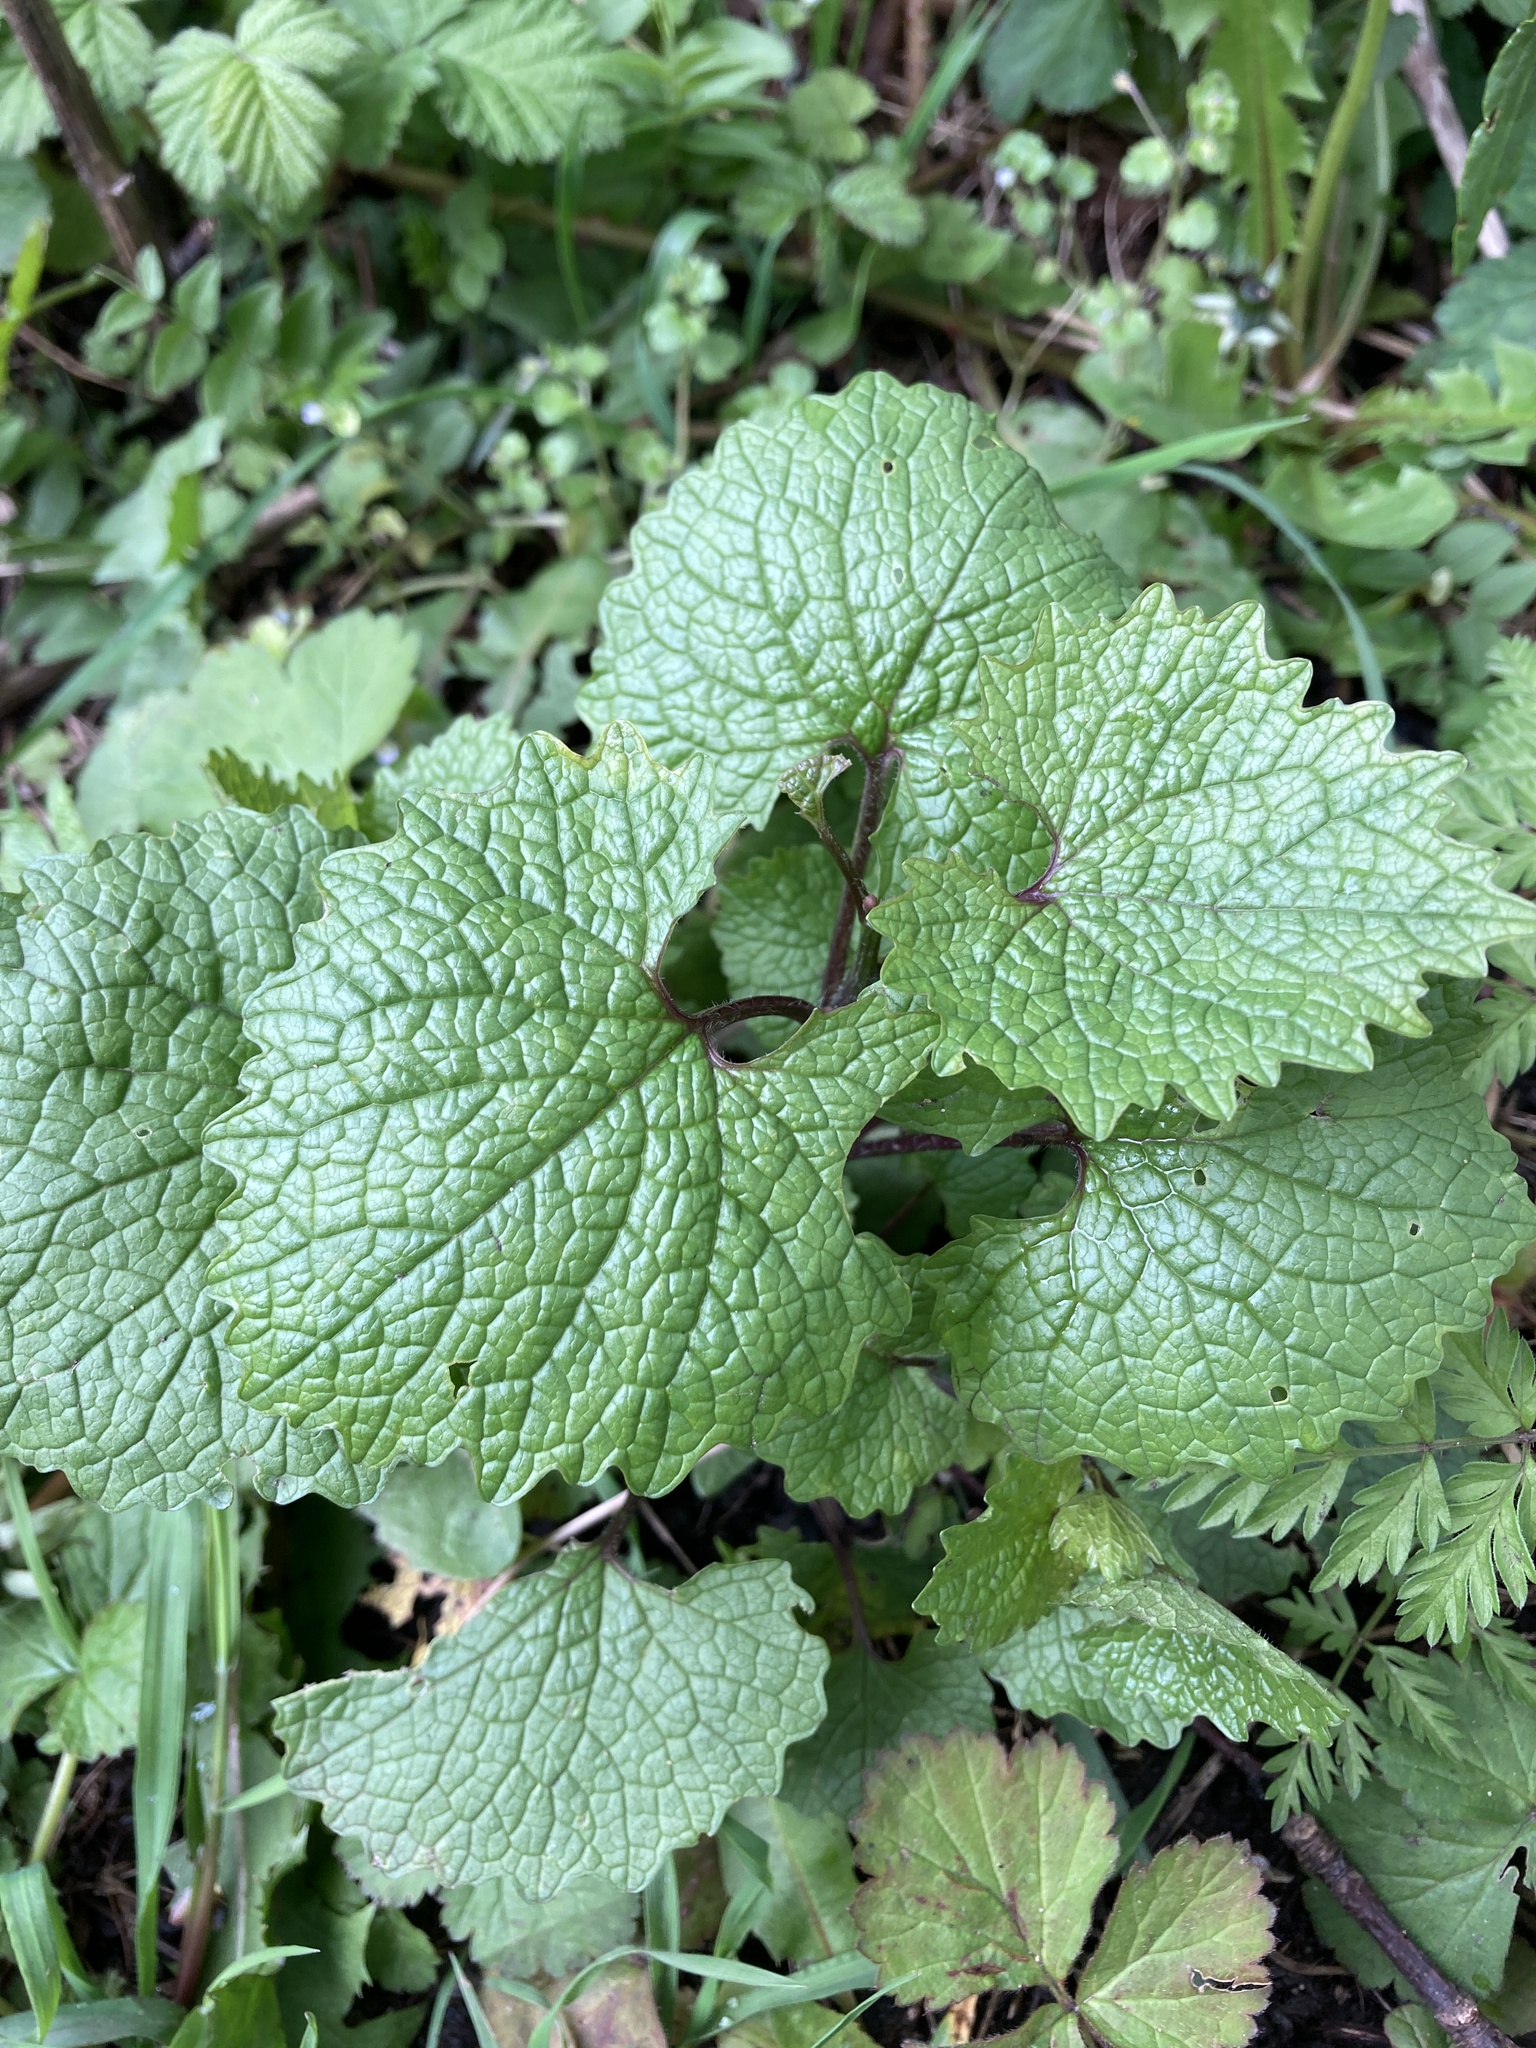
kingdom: Plantae
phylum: Tracheophyta
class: Magnoliopsida
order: Brassicales
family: Brassicaceae
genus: Alliaria
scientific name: Alliaria petiolata
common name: Garlic mustard
